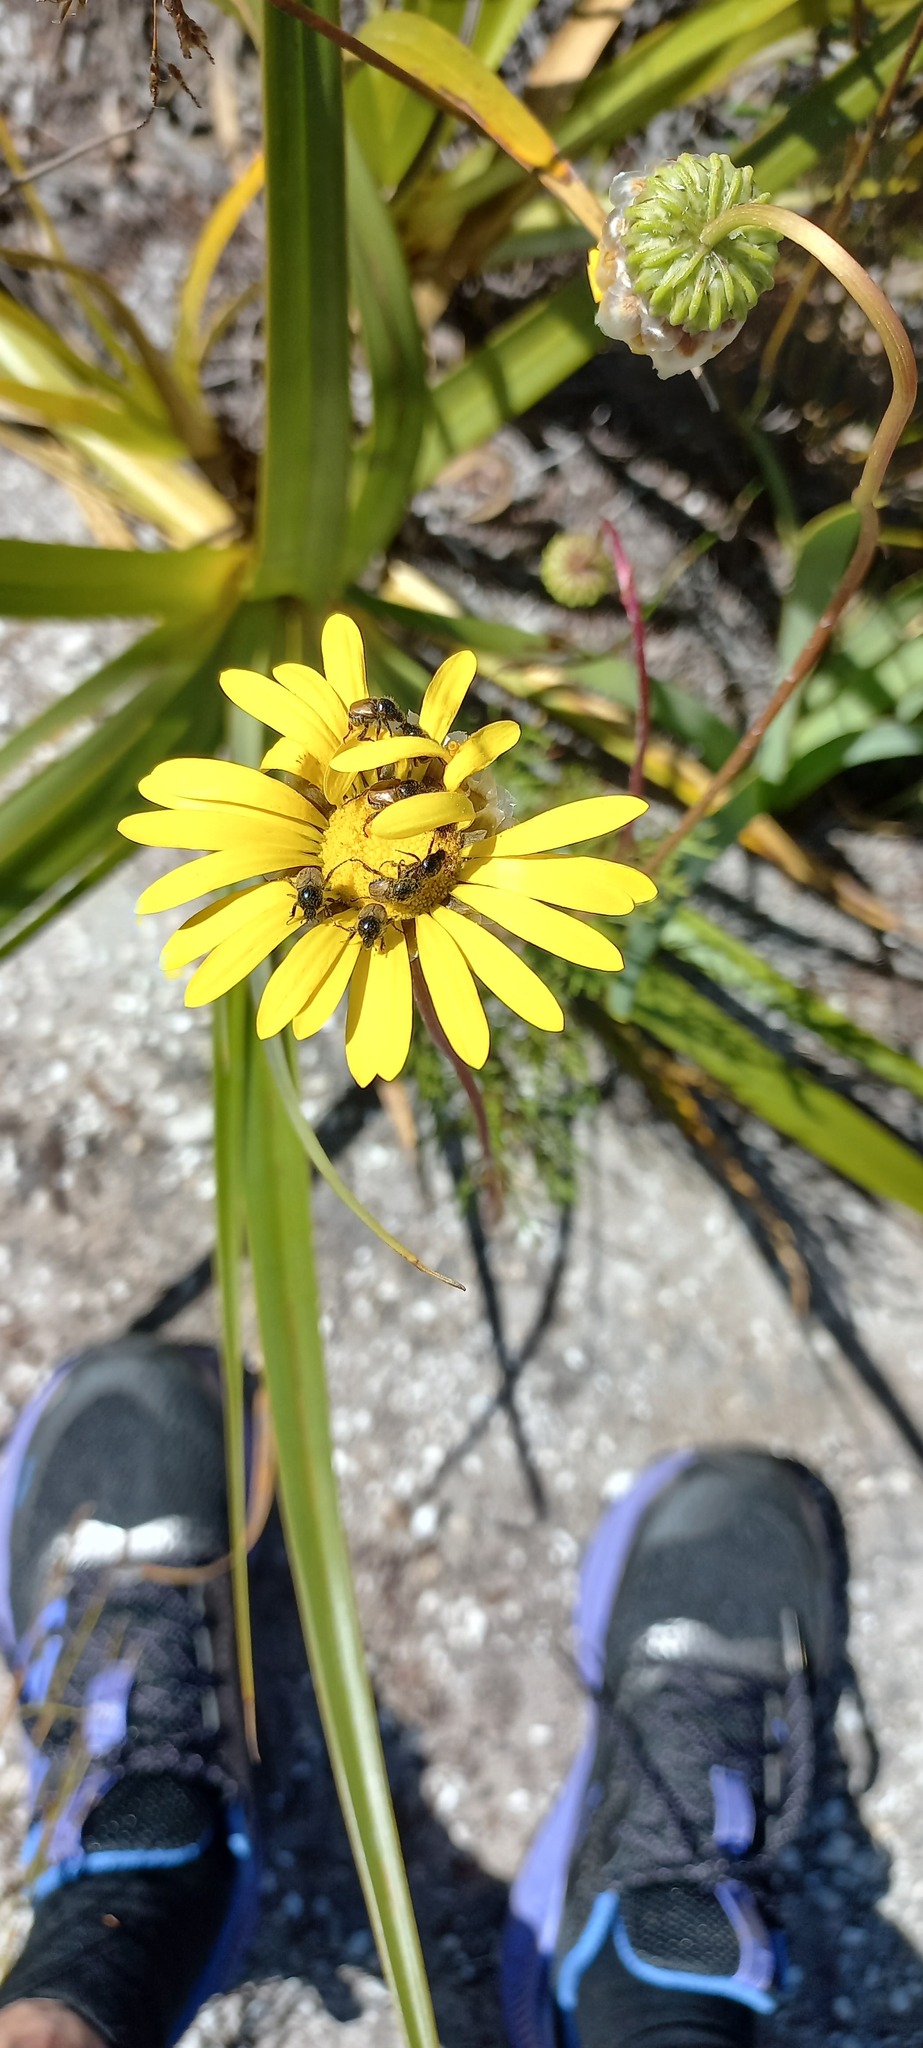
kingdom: Plantae
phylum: Tracheophyta
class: Magnoliopsida
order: Asterales
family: Asteraceae
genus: Ursinia
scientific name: Ursinia paleacea
